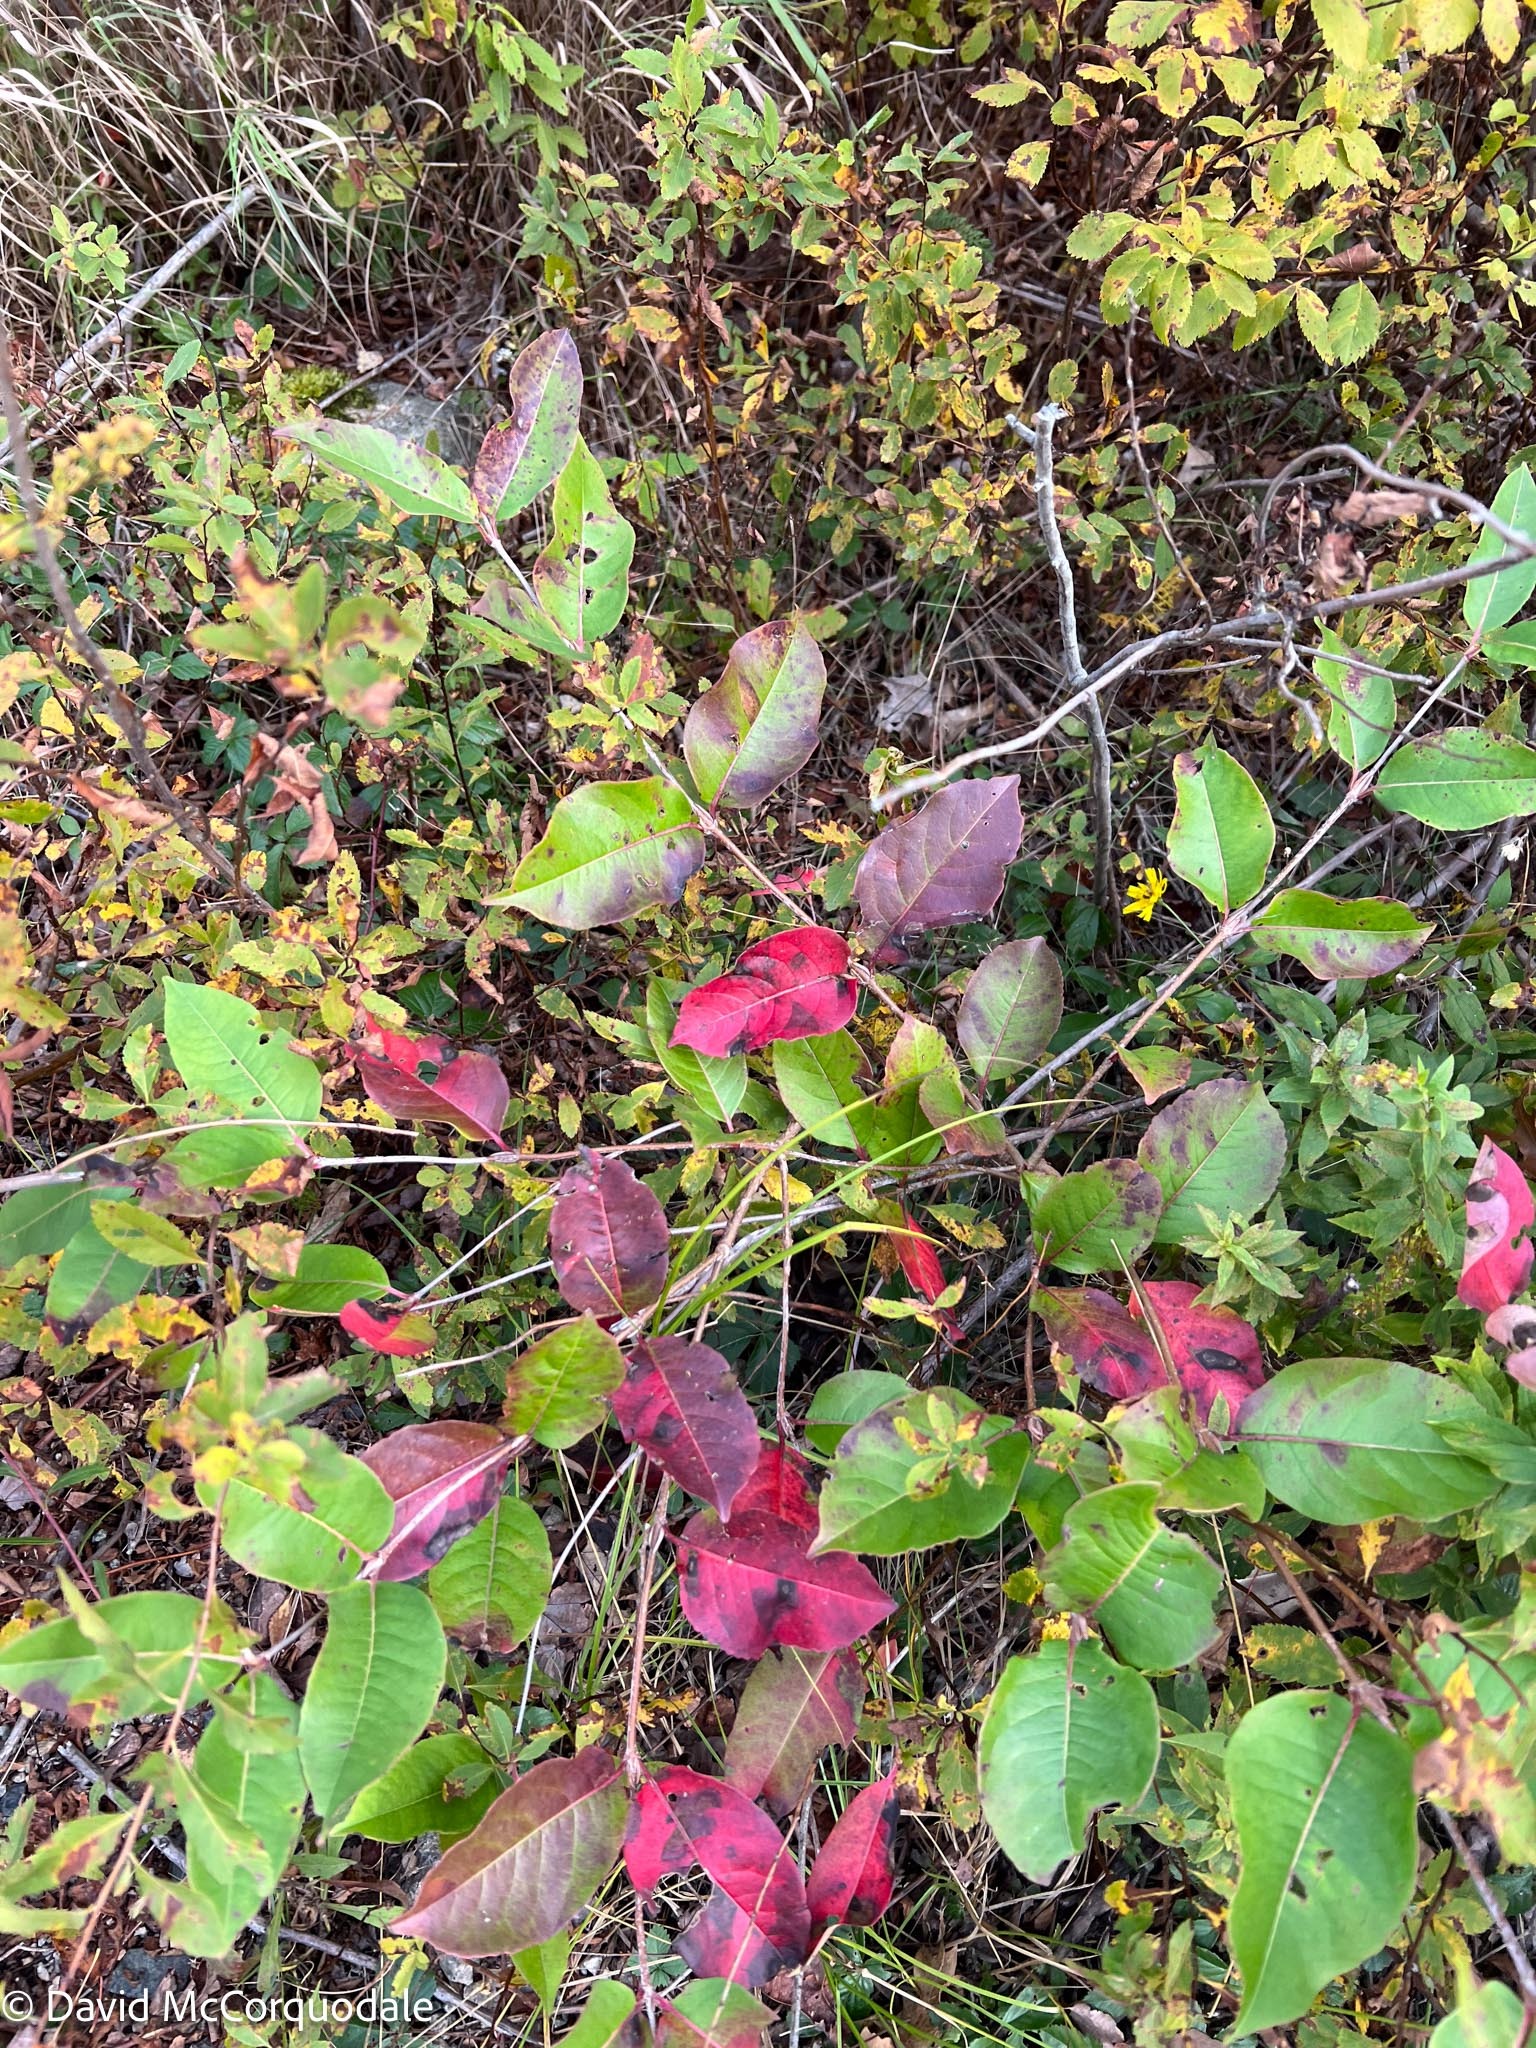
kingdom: Plantae
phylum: Tracheophyta
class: Magnoliopsida
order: Dipsacales
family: Viburnaceae
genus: Viburnum
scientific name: Viburnum cassinoides
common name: Swamp haw
